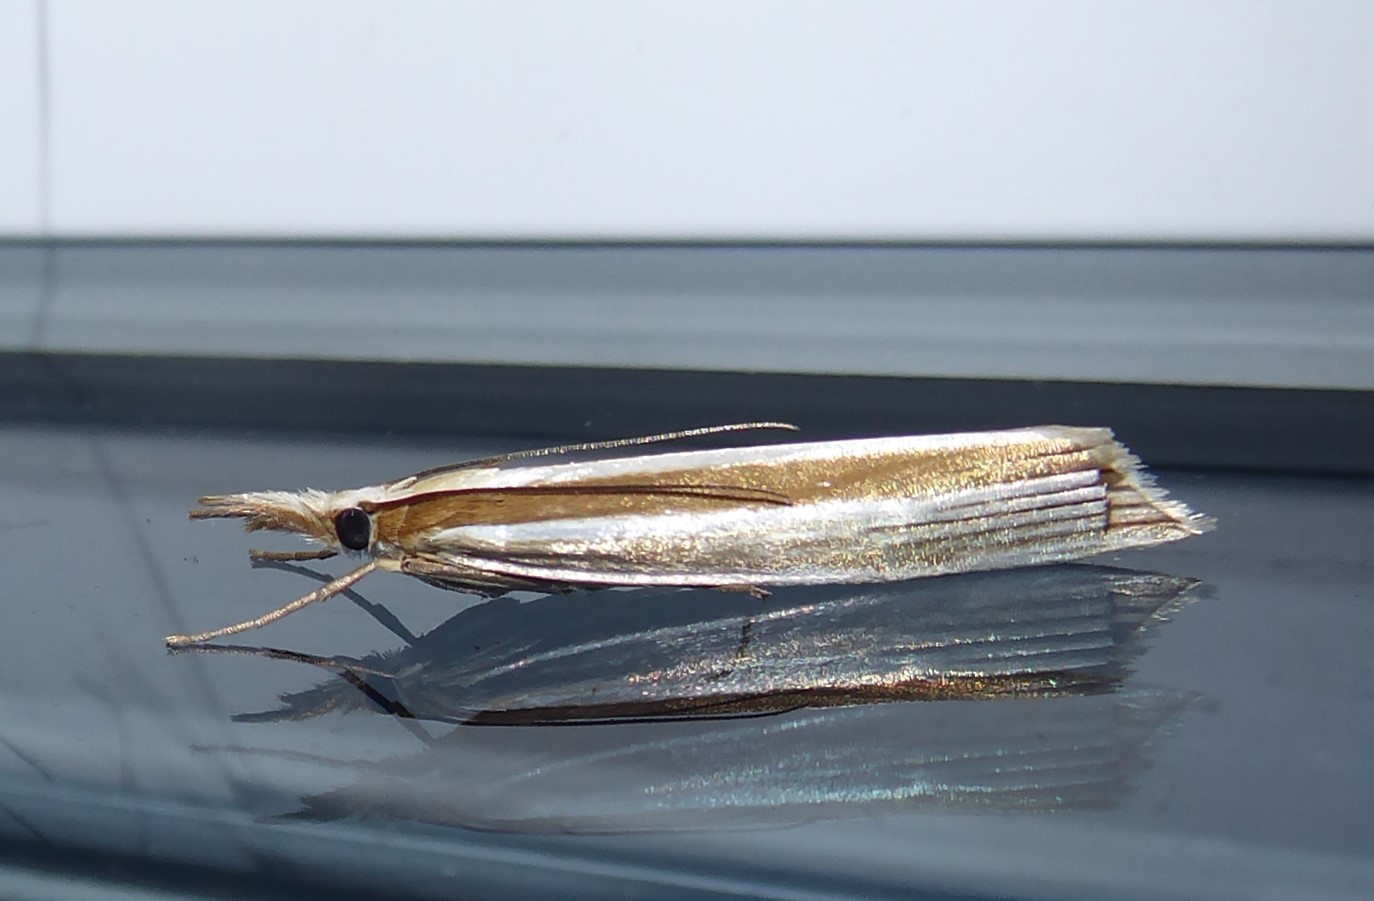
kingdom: Animalia
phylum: Arthropoda
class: Insecta
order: Lepidoptera
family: Crambidae
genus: Orocrambus
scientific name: Orocrambus angustipennis
